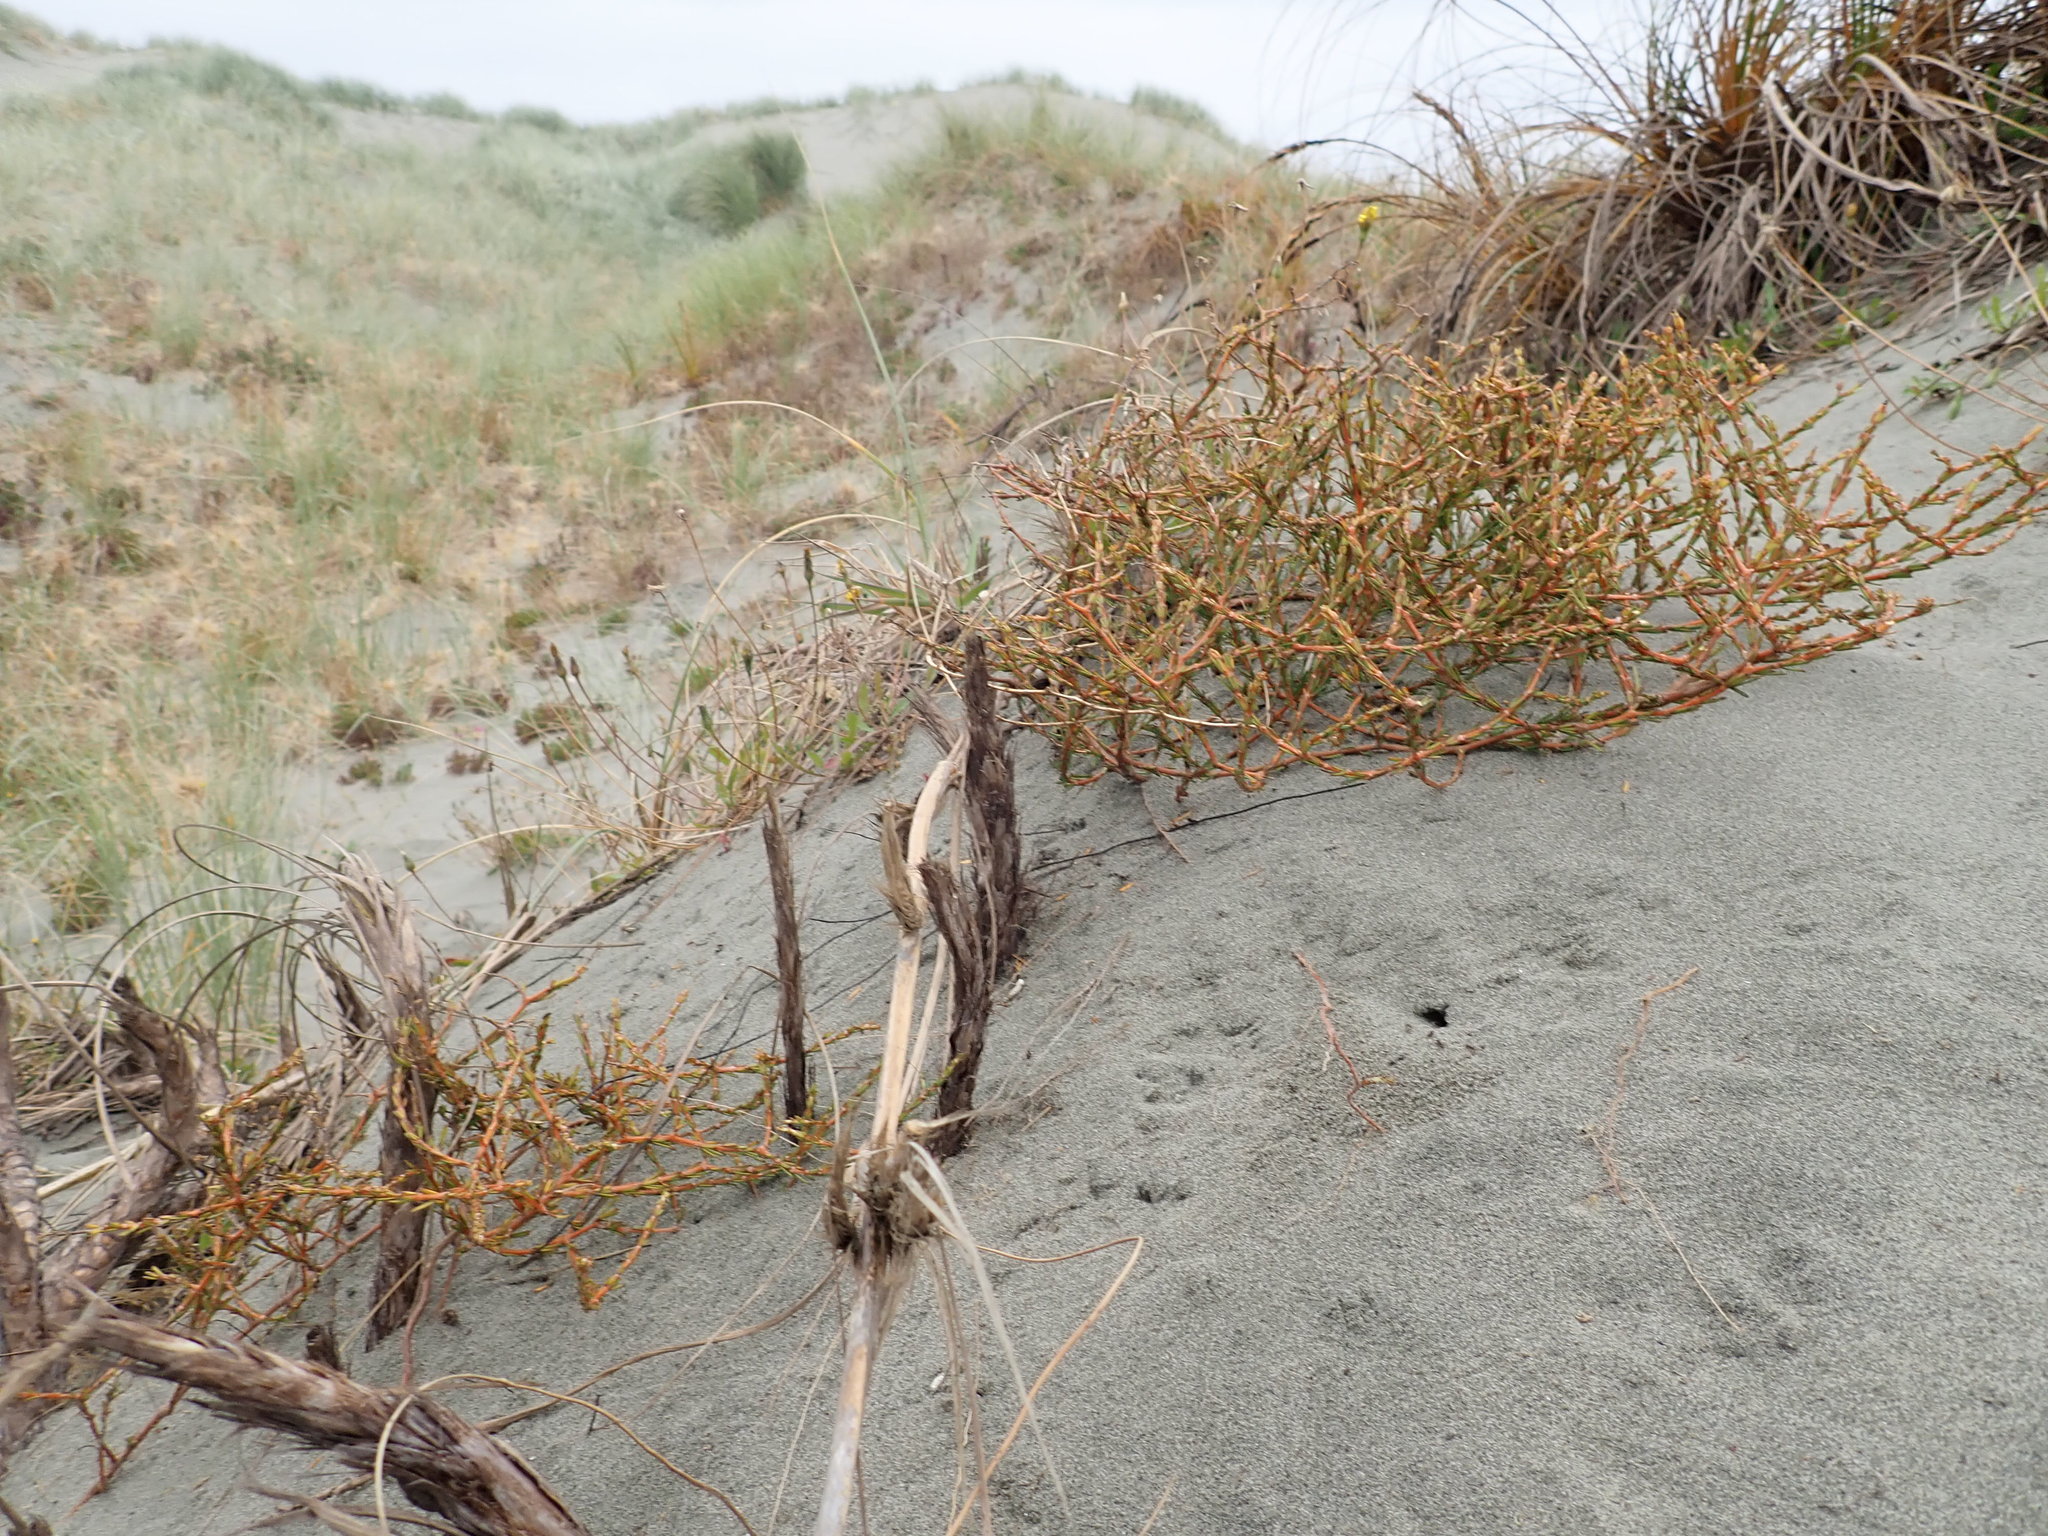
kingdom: Plantae
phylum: Tracheophyta
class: Magnoliopsida
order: Gentianales
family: Rubiaceae
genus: Coprosma
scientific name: Coprosma acerosa
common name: Sand coprosma
